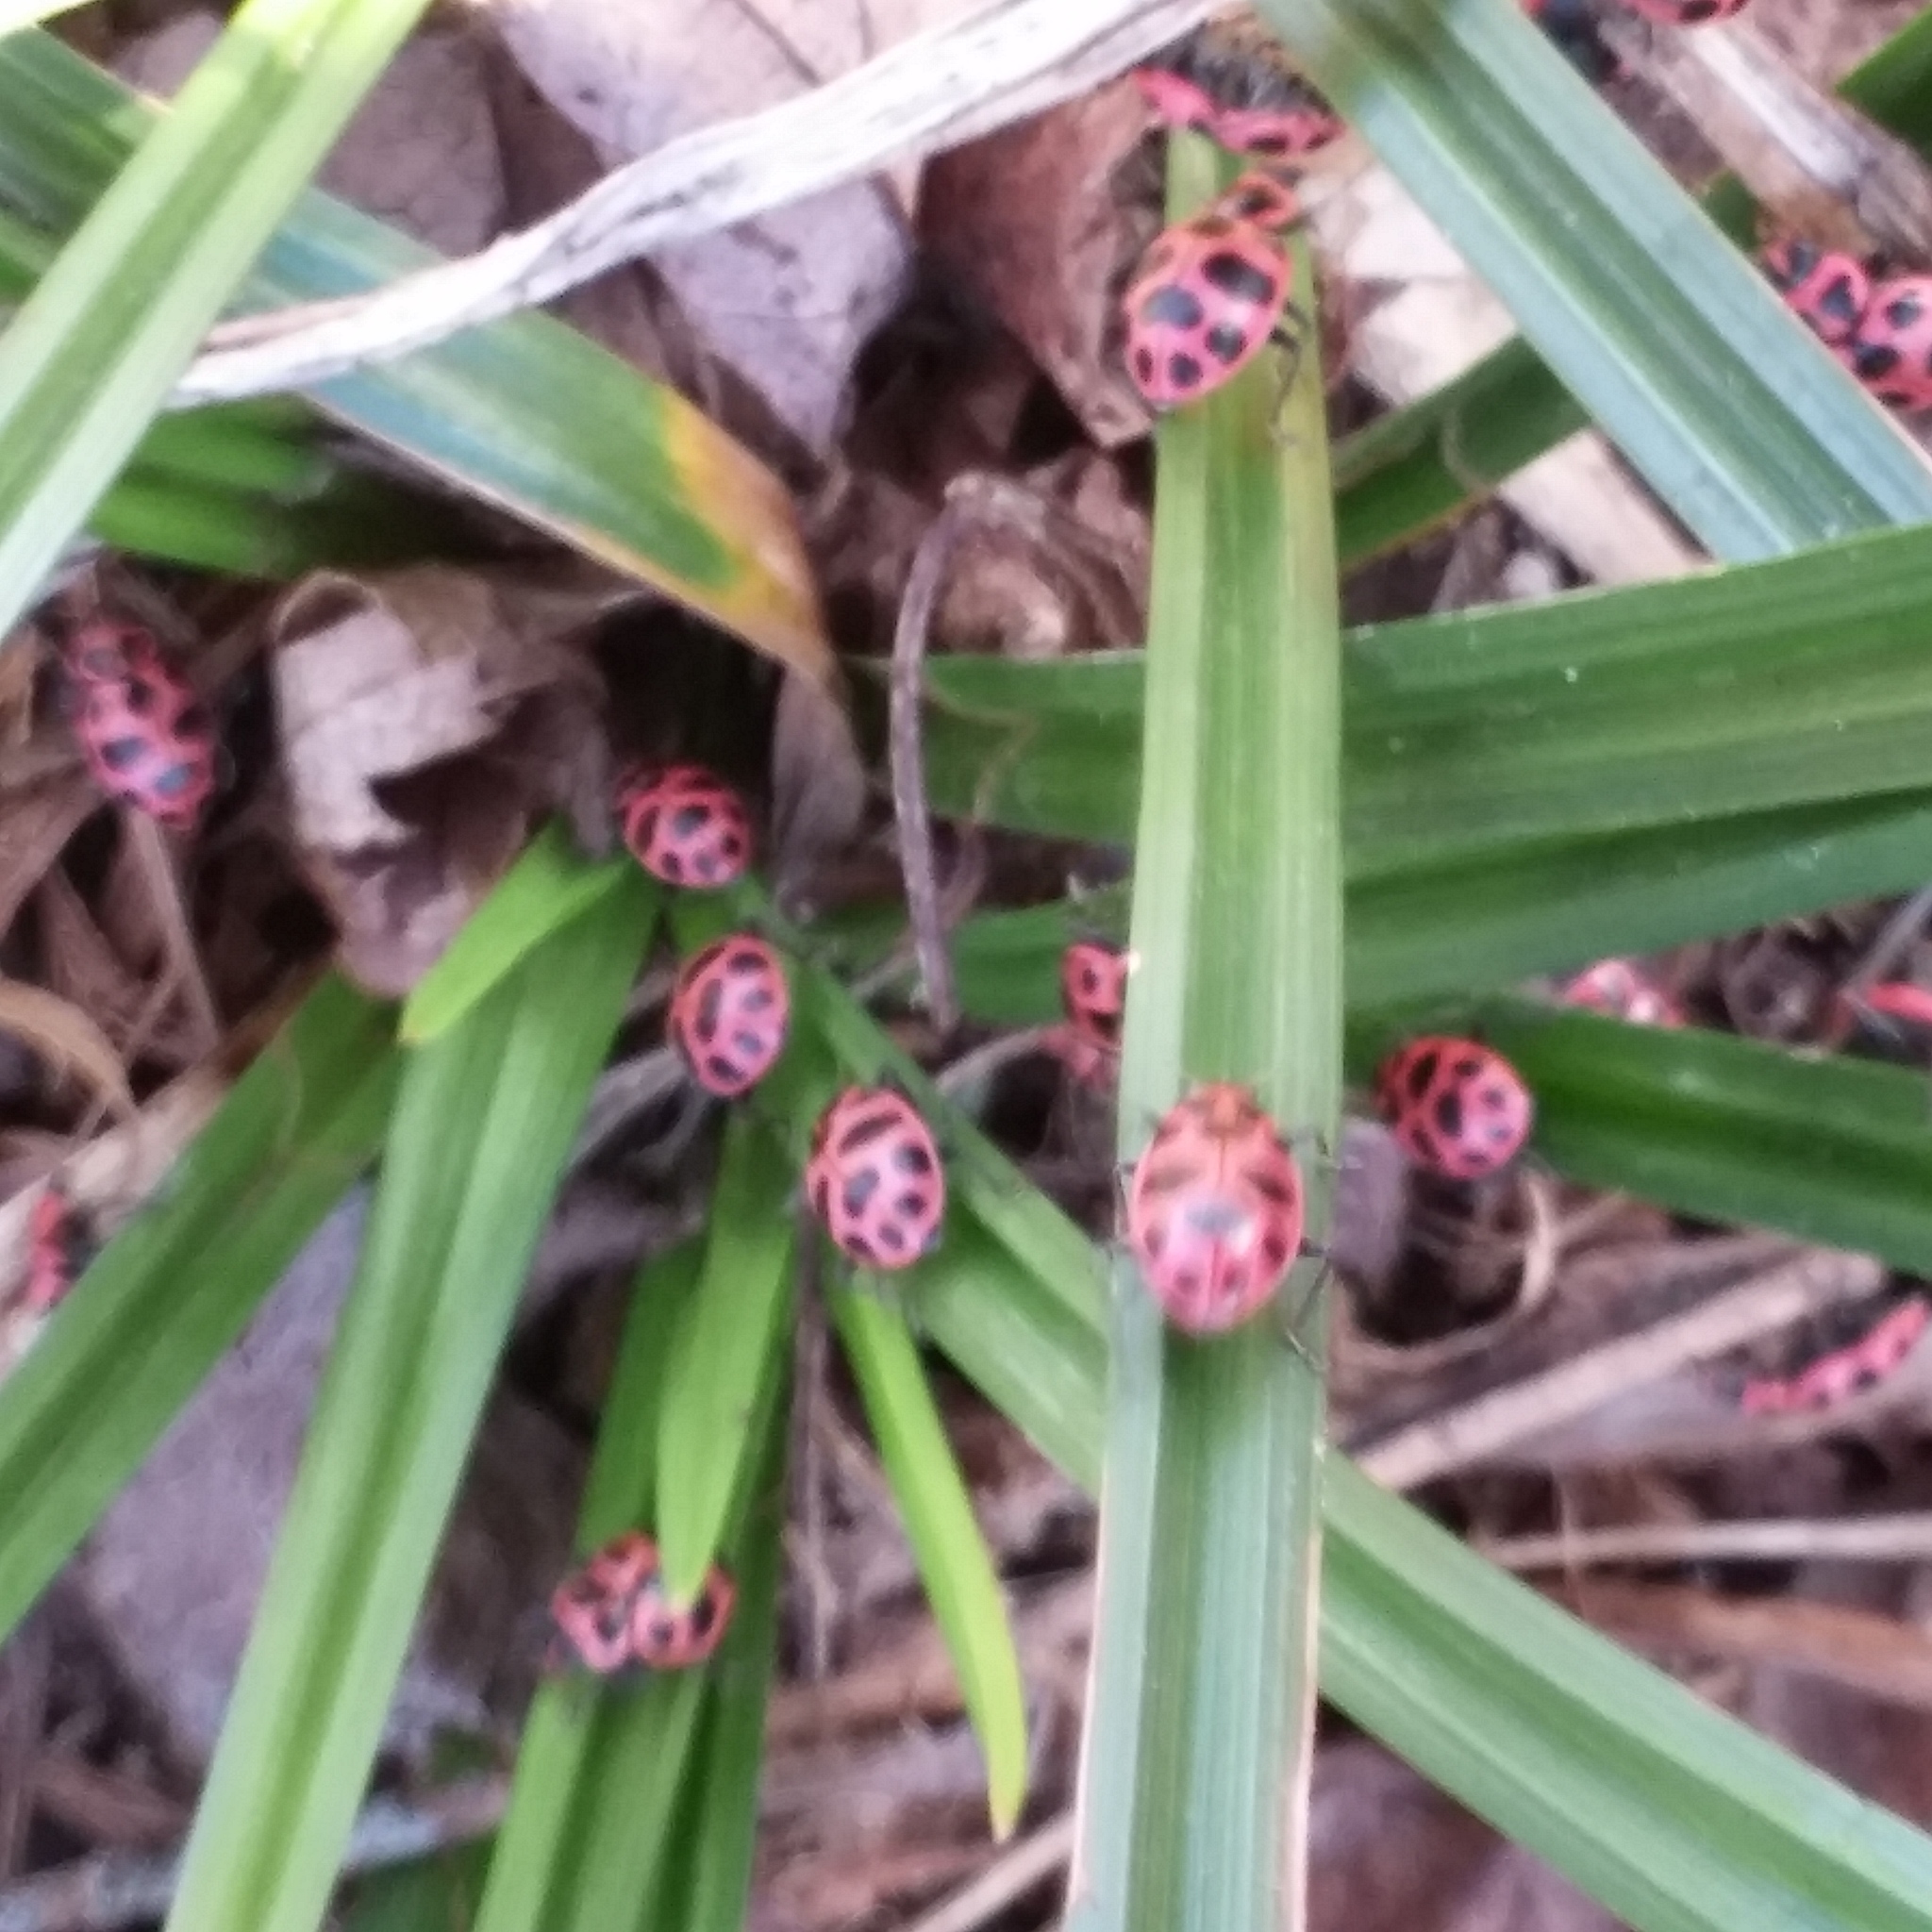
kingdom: Animalia
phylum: Arthropoda
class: Insecta
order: Coleoptera
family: Coccinellidae
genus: Coleomegilla
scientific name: Coleomegilla maculata
